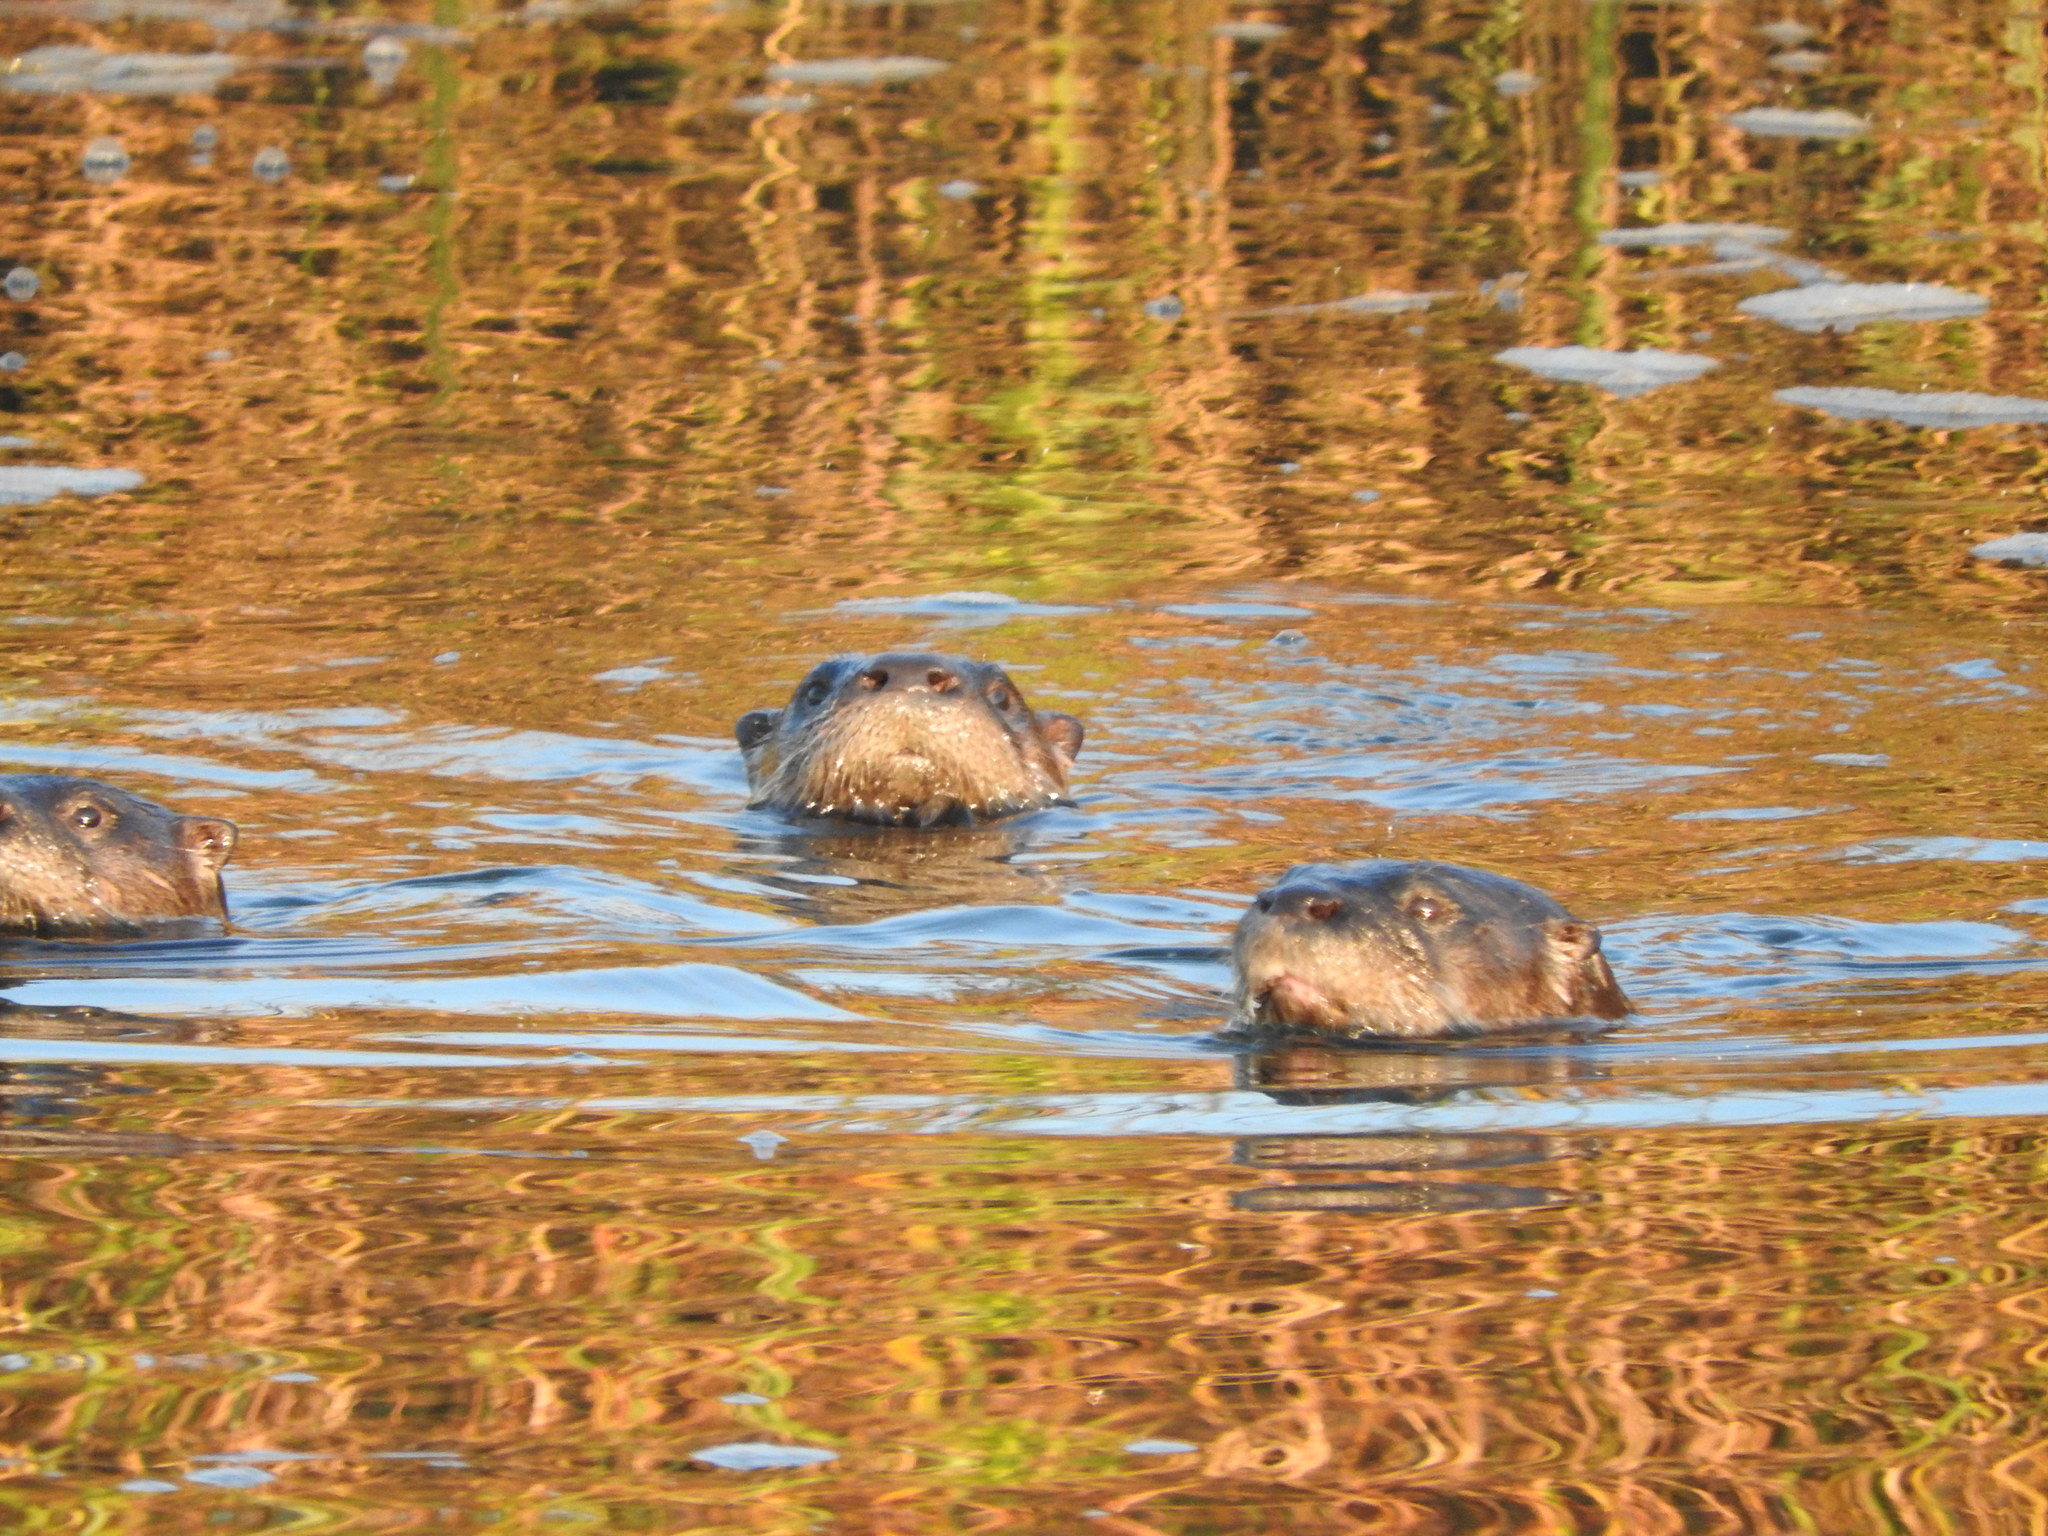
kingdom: Animalia
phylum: Chordata
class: Mammalia
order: Carnivora
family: Mustelidae
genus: Lontra
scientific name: Lontra canadensis
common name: North american river otter
